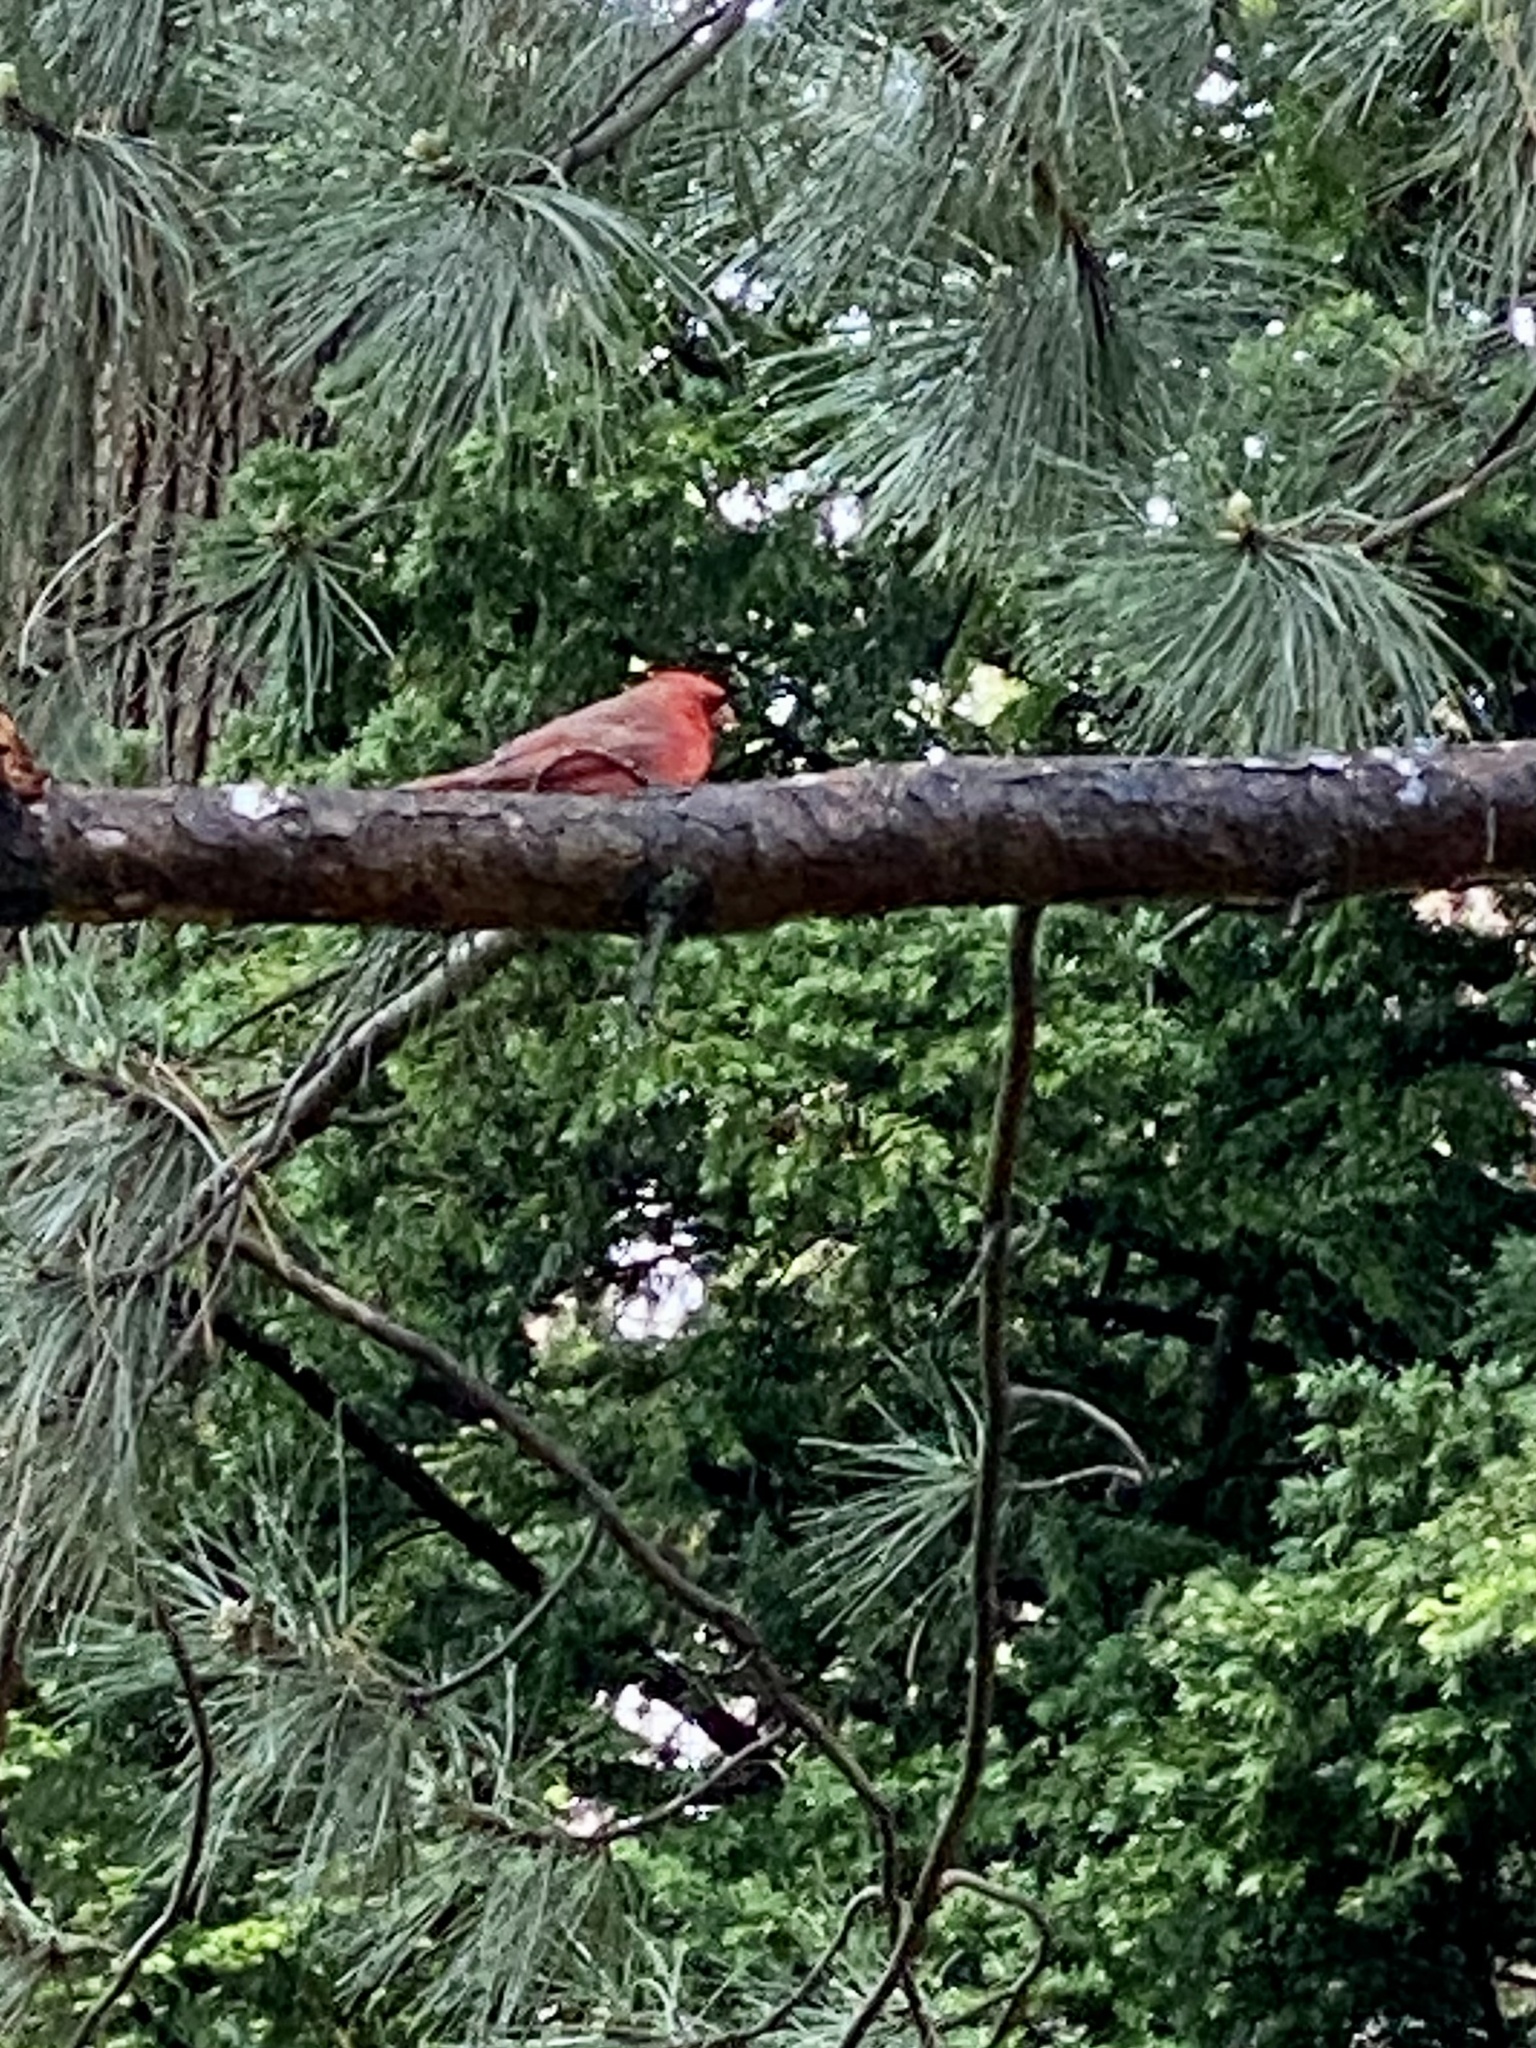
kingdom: Animalia
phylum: Chordata
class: Aves
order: Passeriformes
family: Cardinalidae
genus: Cardinalis
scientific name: Cardinalis cardinalis
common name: Northern cardinal
